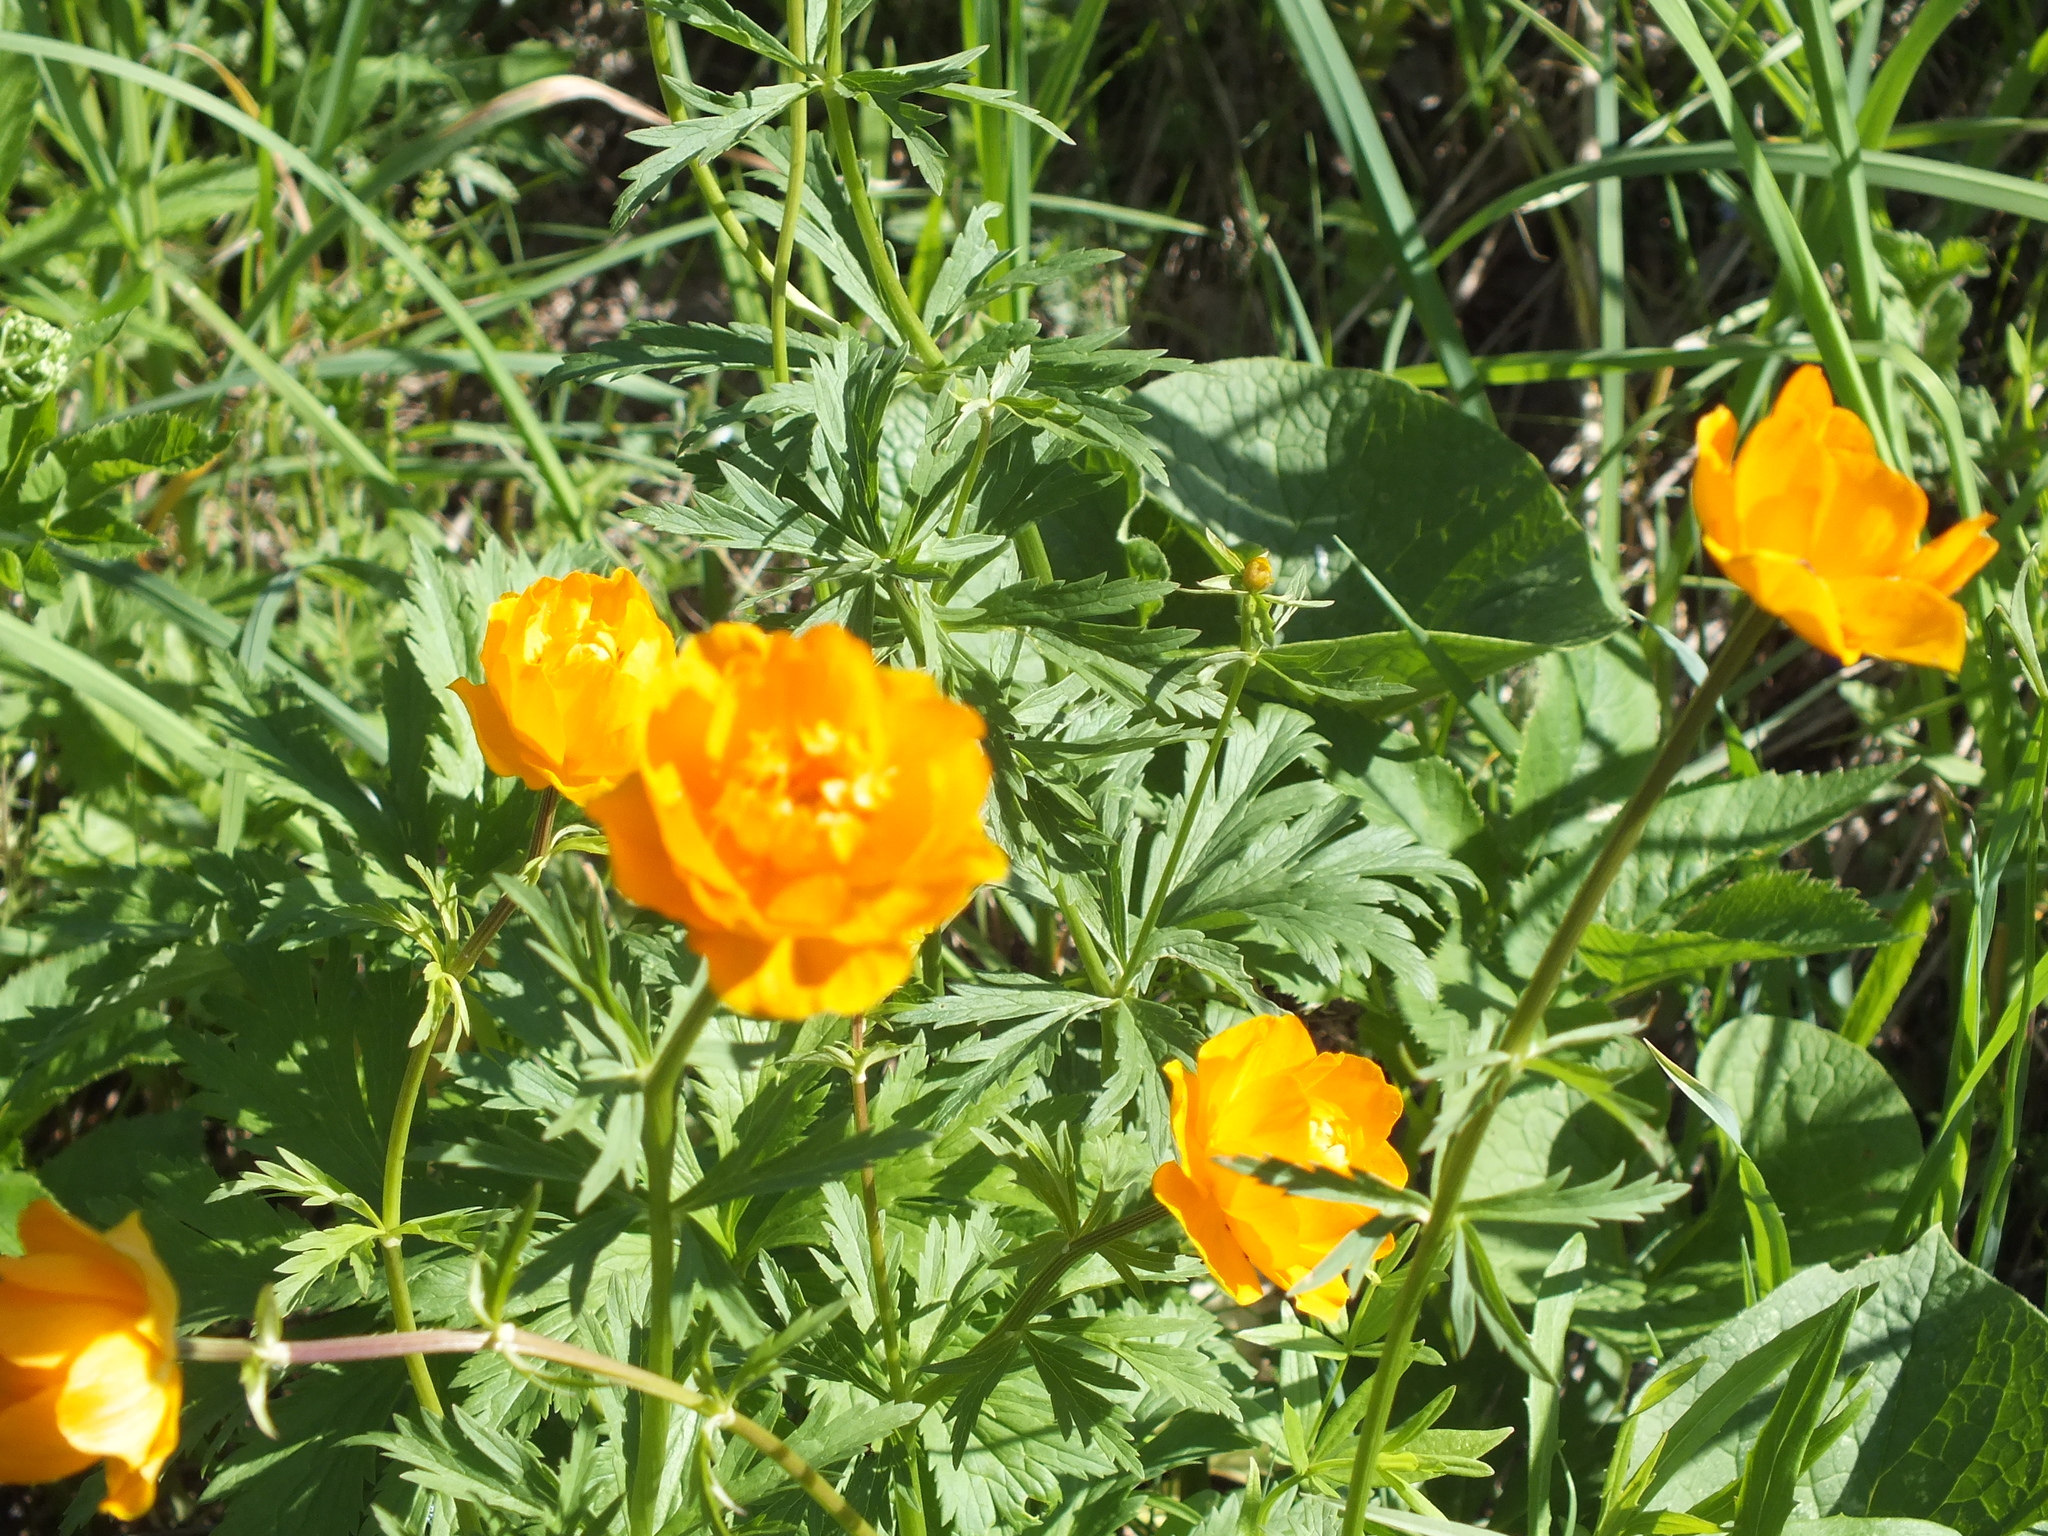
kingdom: Plantae
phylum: Tracheophyta
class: Magnoliopsida
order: Ranunculales
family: Ranunculaceae
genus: Trollius
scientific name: Trollius asiaticus
